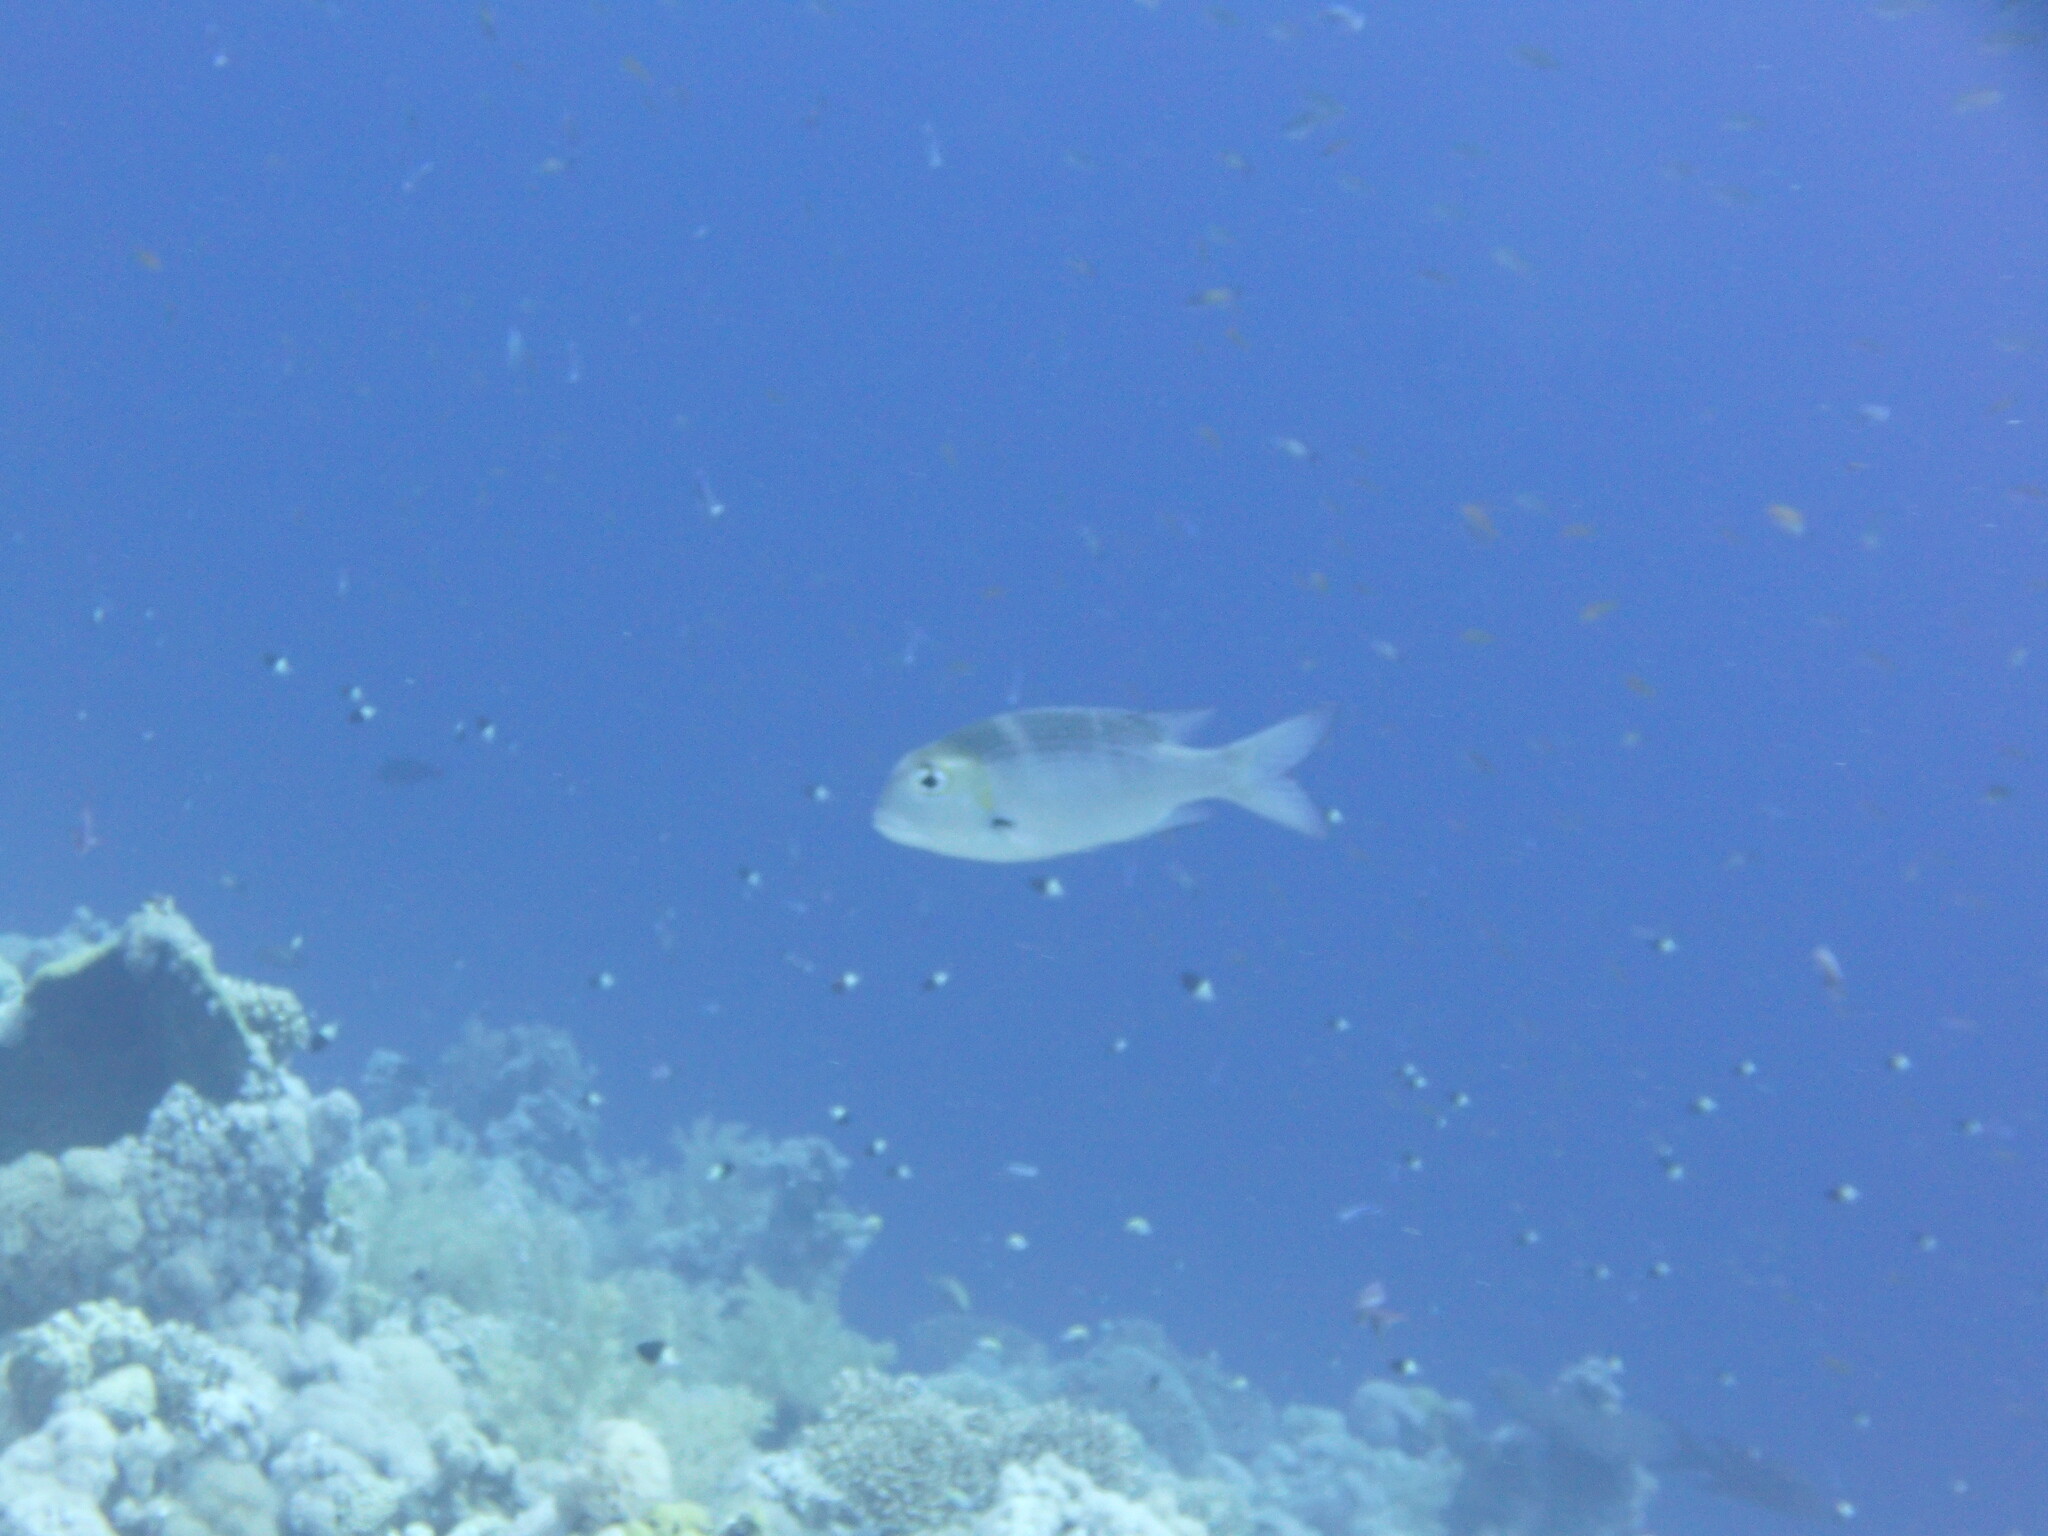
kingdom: Animalia
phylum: Chordata
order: Perciformes
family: Lethrinidae
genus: Monotaxis
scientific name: Monotaxis grandoculis
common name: Bigeye emperor
